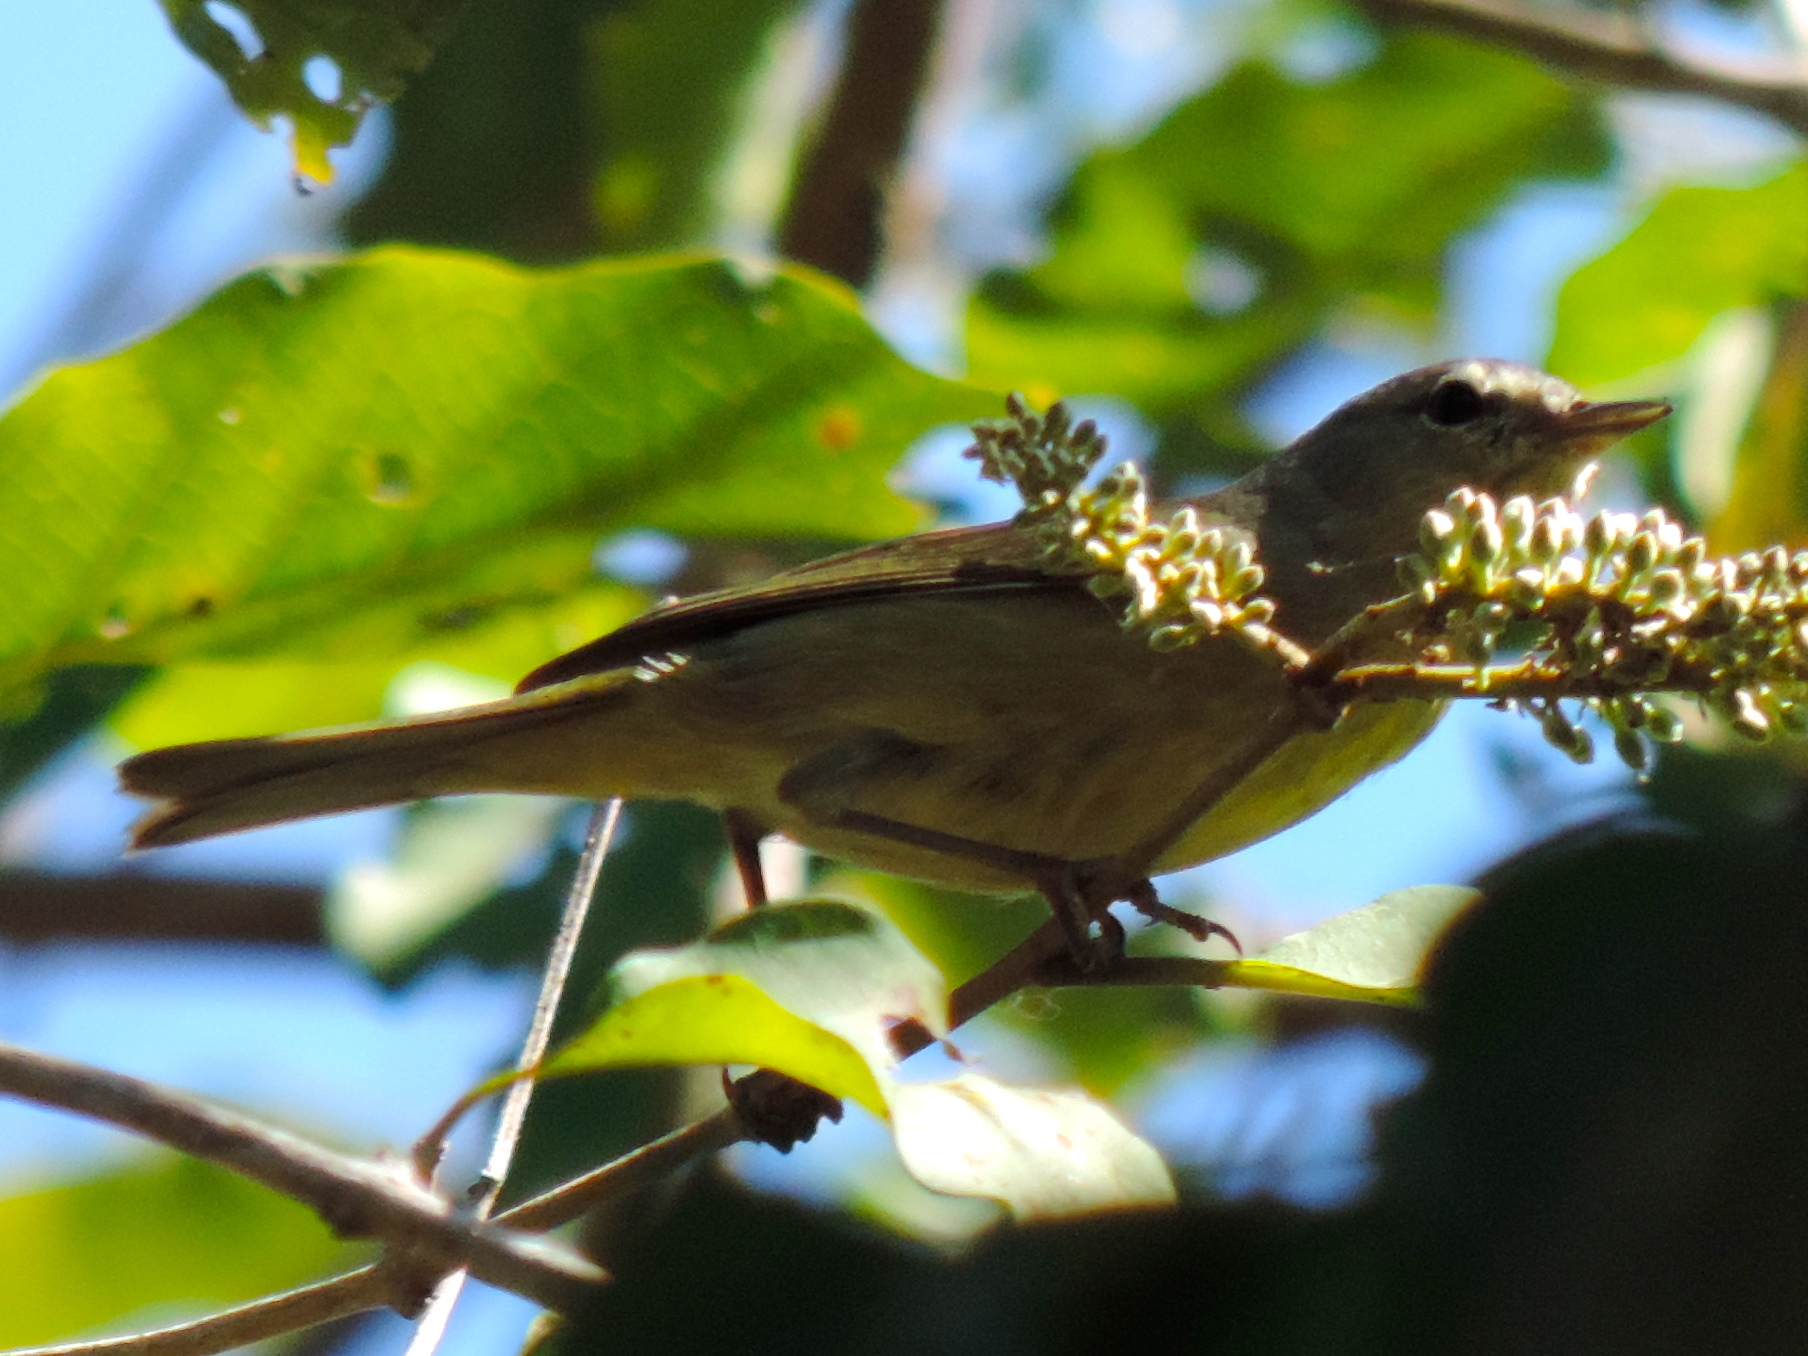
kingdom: Animalia
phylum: Chordata
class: Aves
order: Passeriformes
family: Parulidae
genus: Leiothlypis
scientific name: Leiothlypis celata
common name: Orange-crowned warbler
